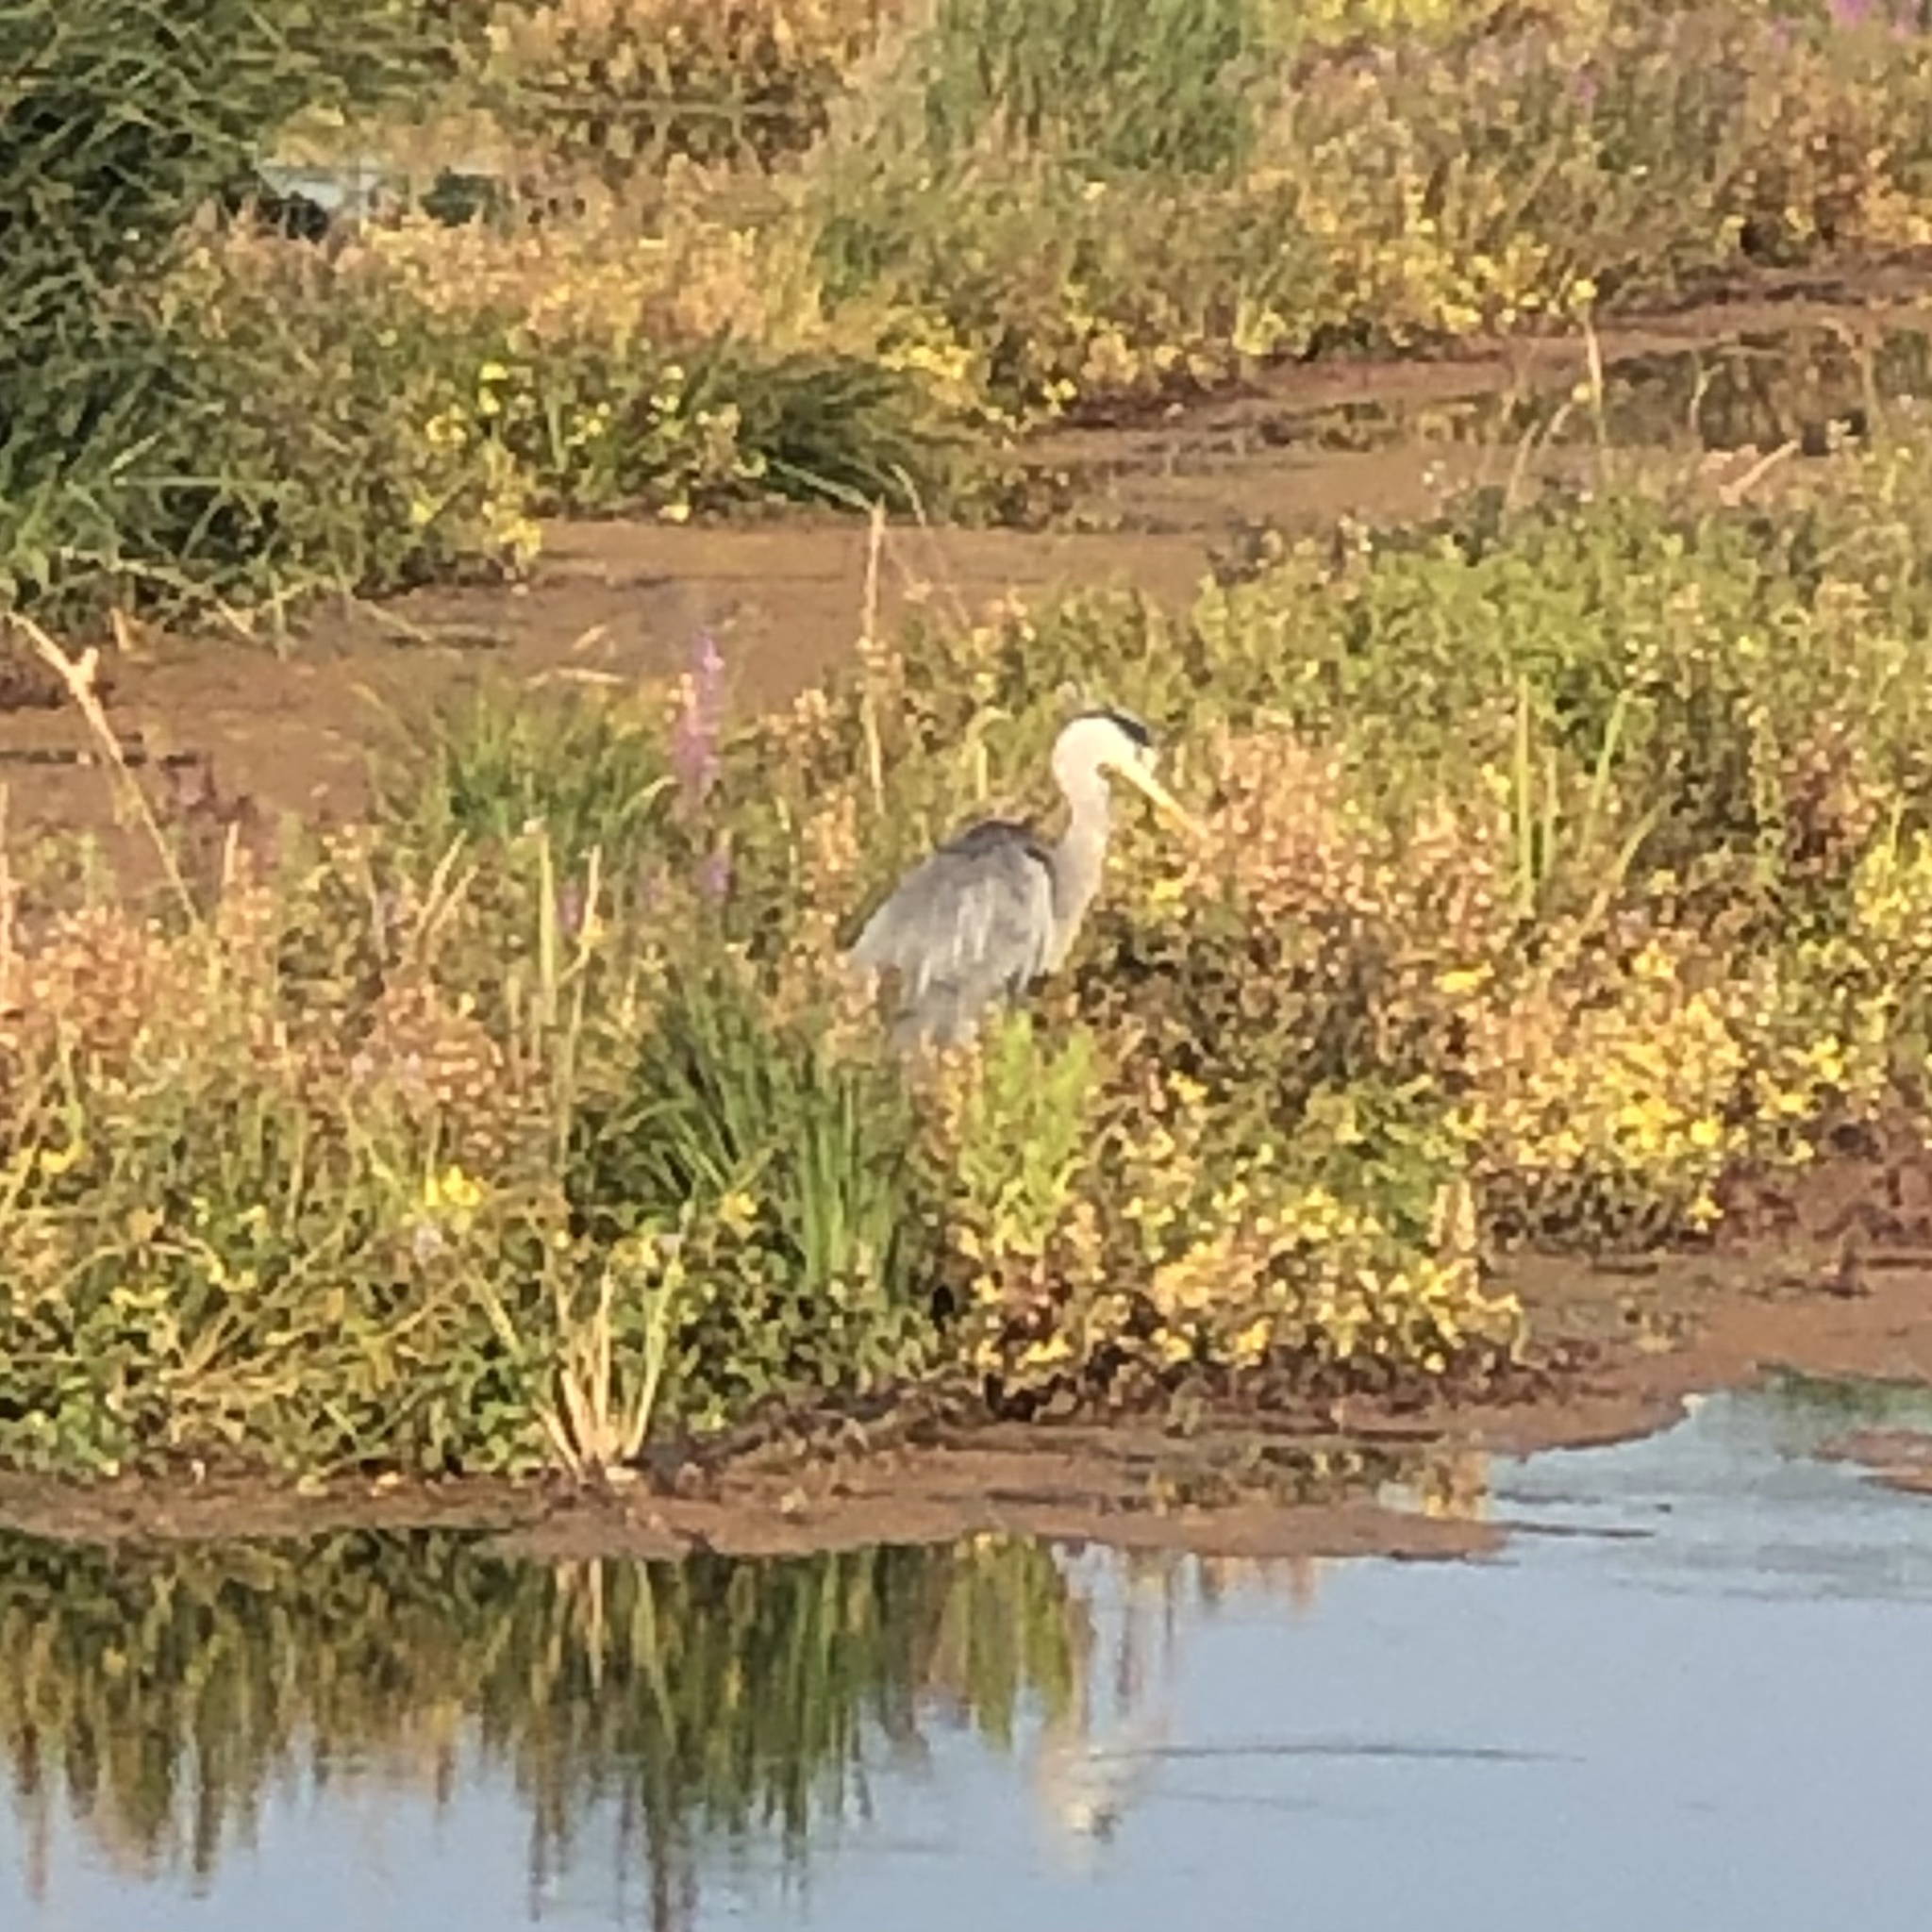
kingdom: Animalia
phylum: Chordata
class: Aves
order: Pelecaniformes
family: Ardeidae
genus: Ardea
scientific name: Ardea cinerea
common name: Grey heron
